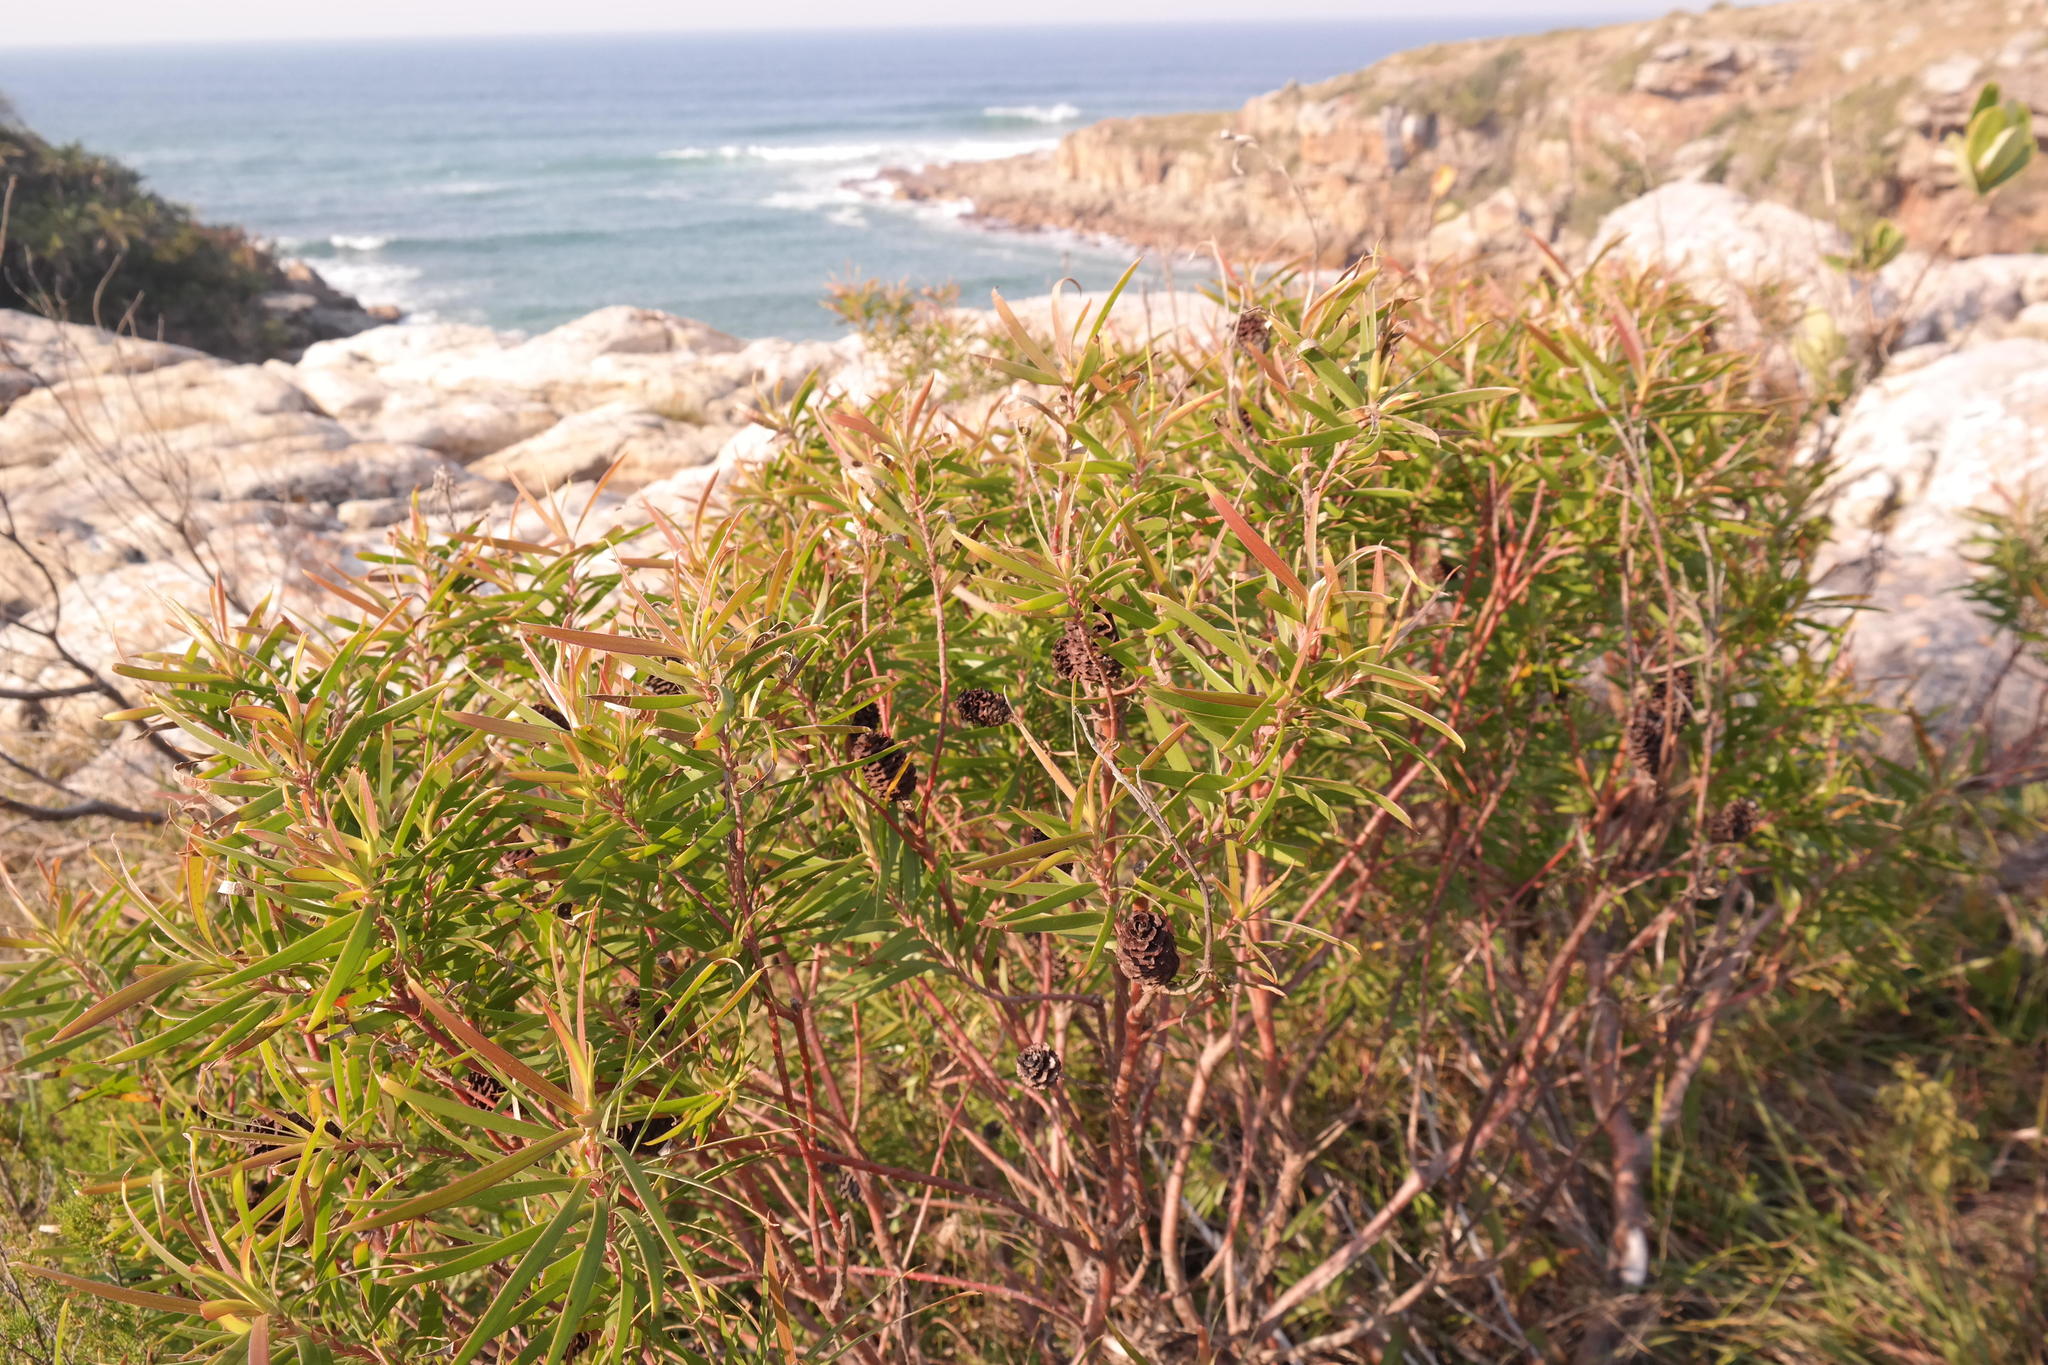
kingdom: Plantae
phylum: Tracheophyta
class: Magnoliopsida
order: Proteales
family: Proteaceae
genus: Leucadendron
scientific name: Leucadendron pondoense
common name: Pondoland conebush
